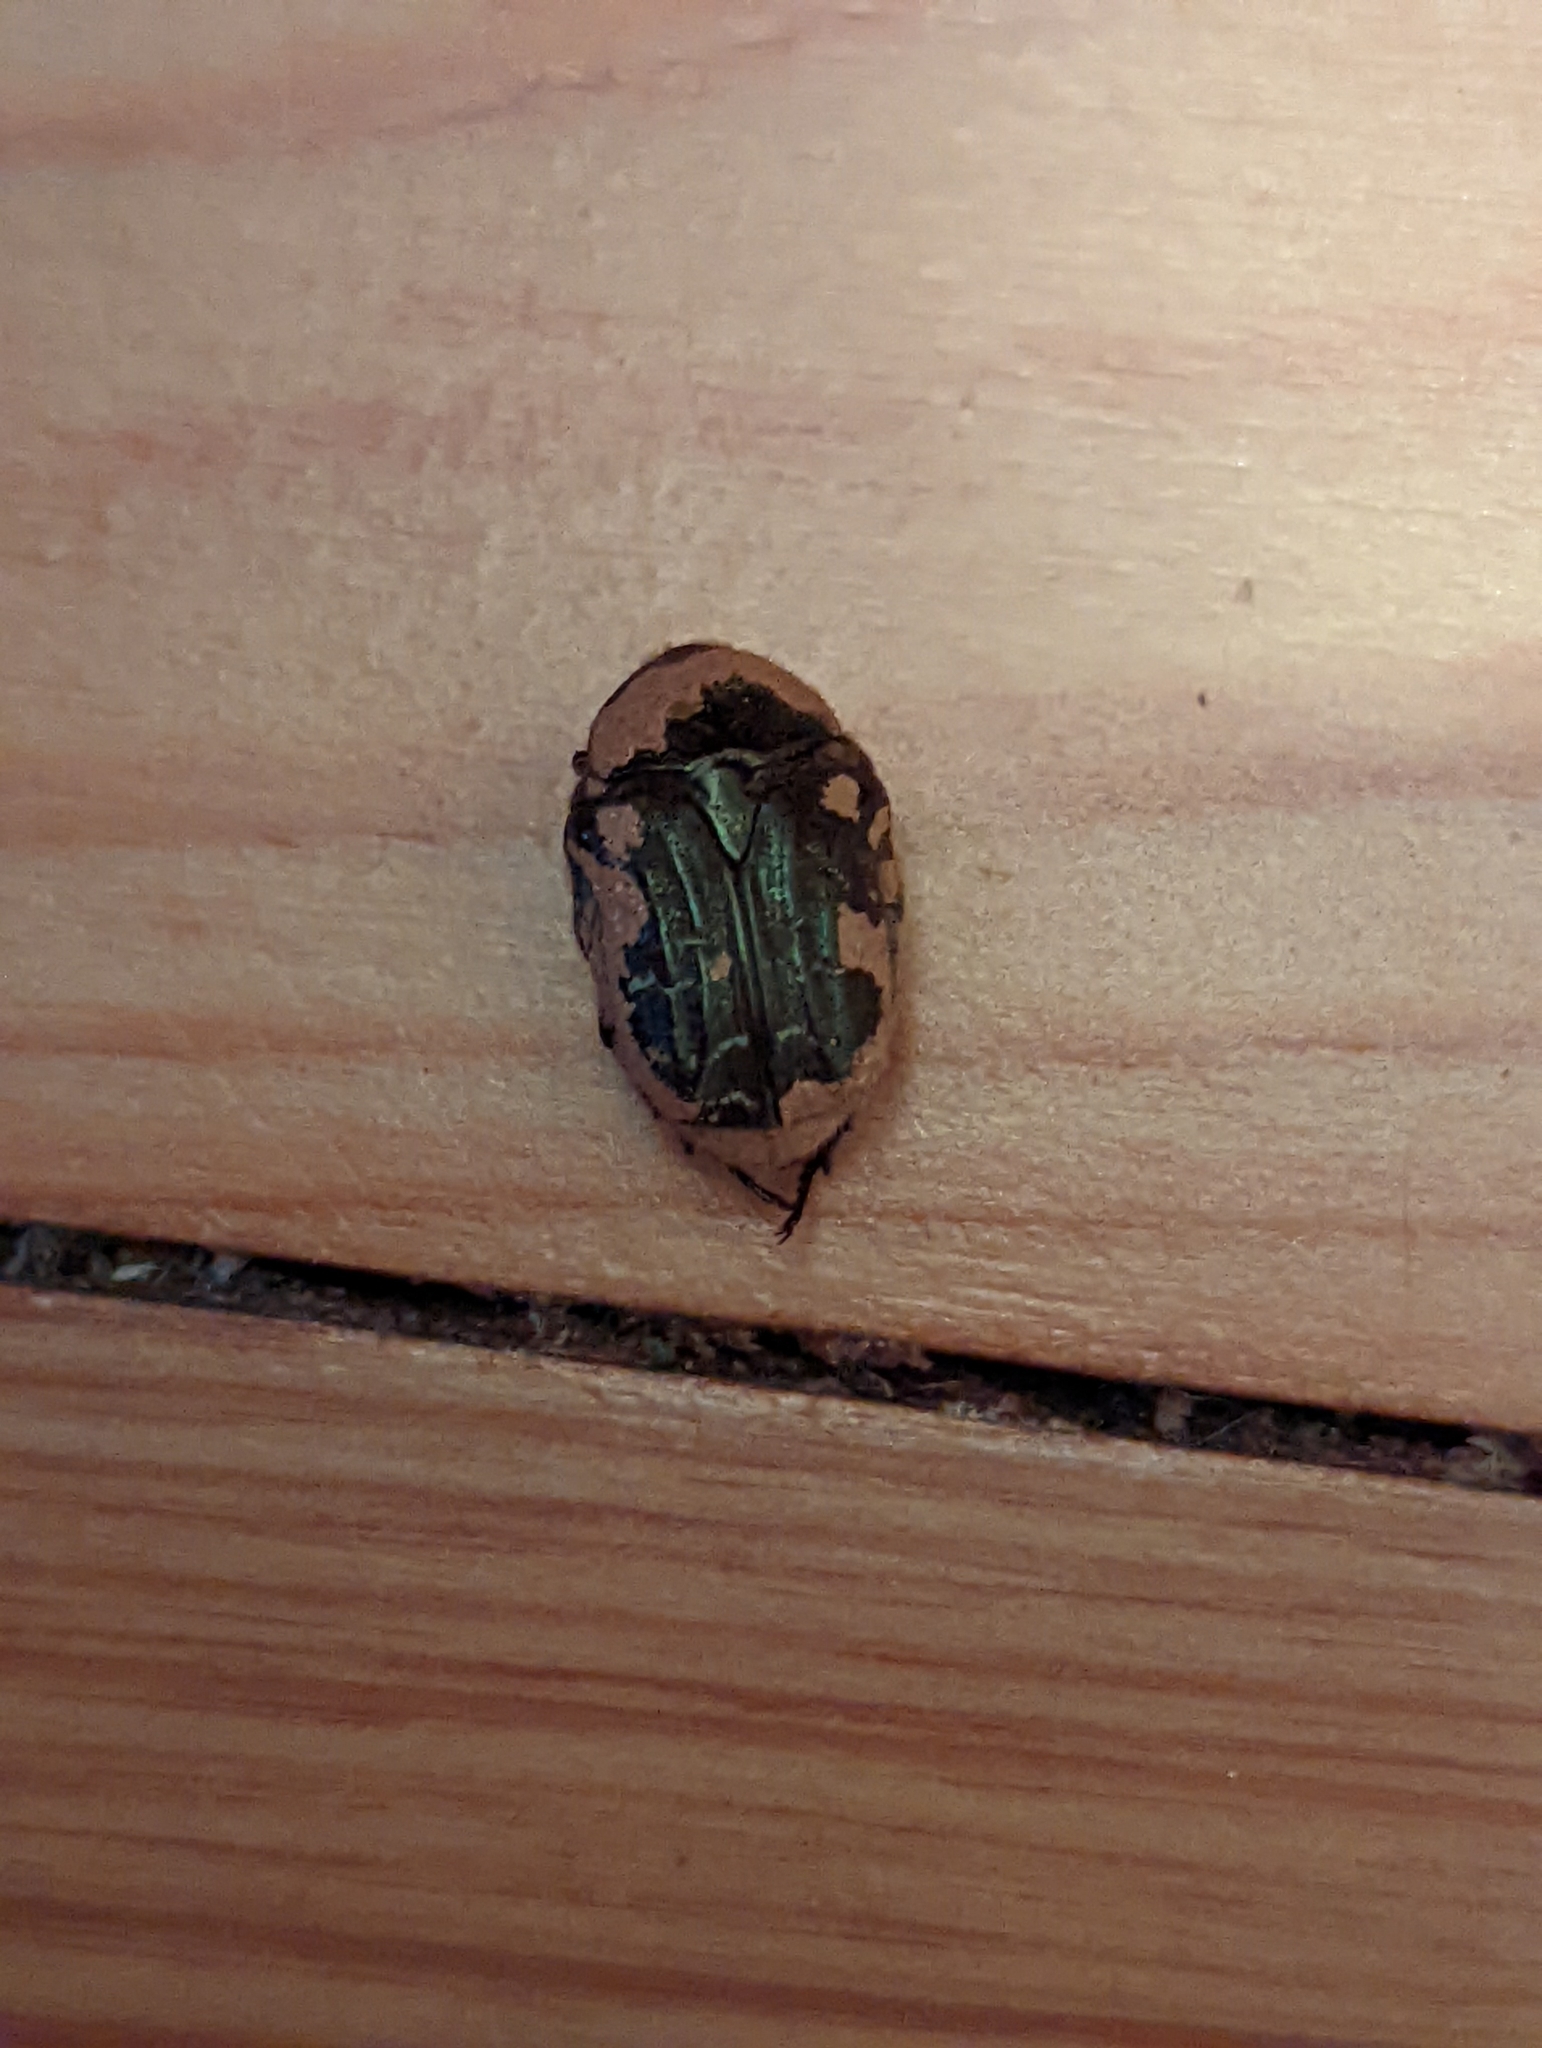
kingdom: Animalia
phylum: Arthropoda
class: Insecta
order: Coleoptera
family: Scarabaeidae
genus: Euphoria
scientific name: Euphoria sepulcralis
